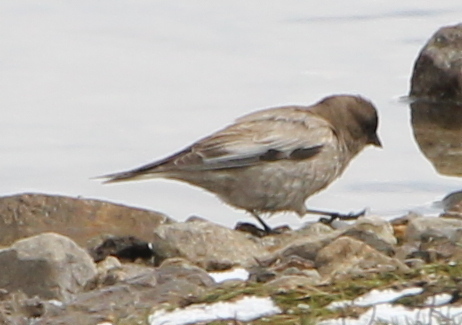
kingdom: Animalia
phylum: Chordata
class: Aves
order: Passeriformes
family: Fringillidae
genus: Leucosticte
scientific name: Leucosticte brandti
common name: Brandt's mountain finch
